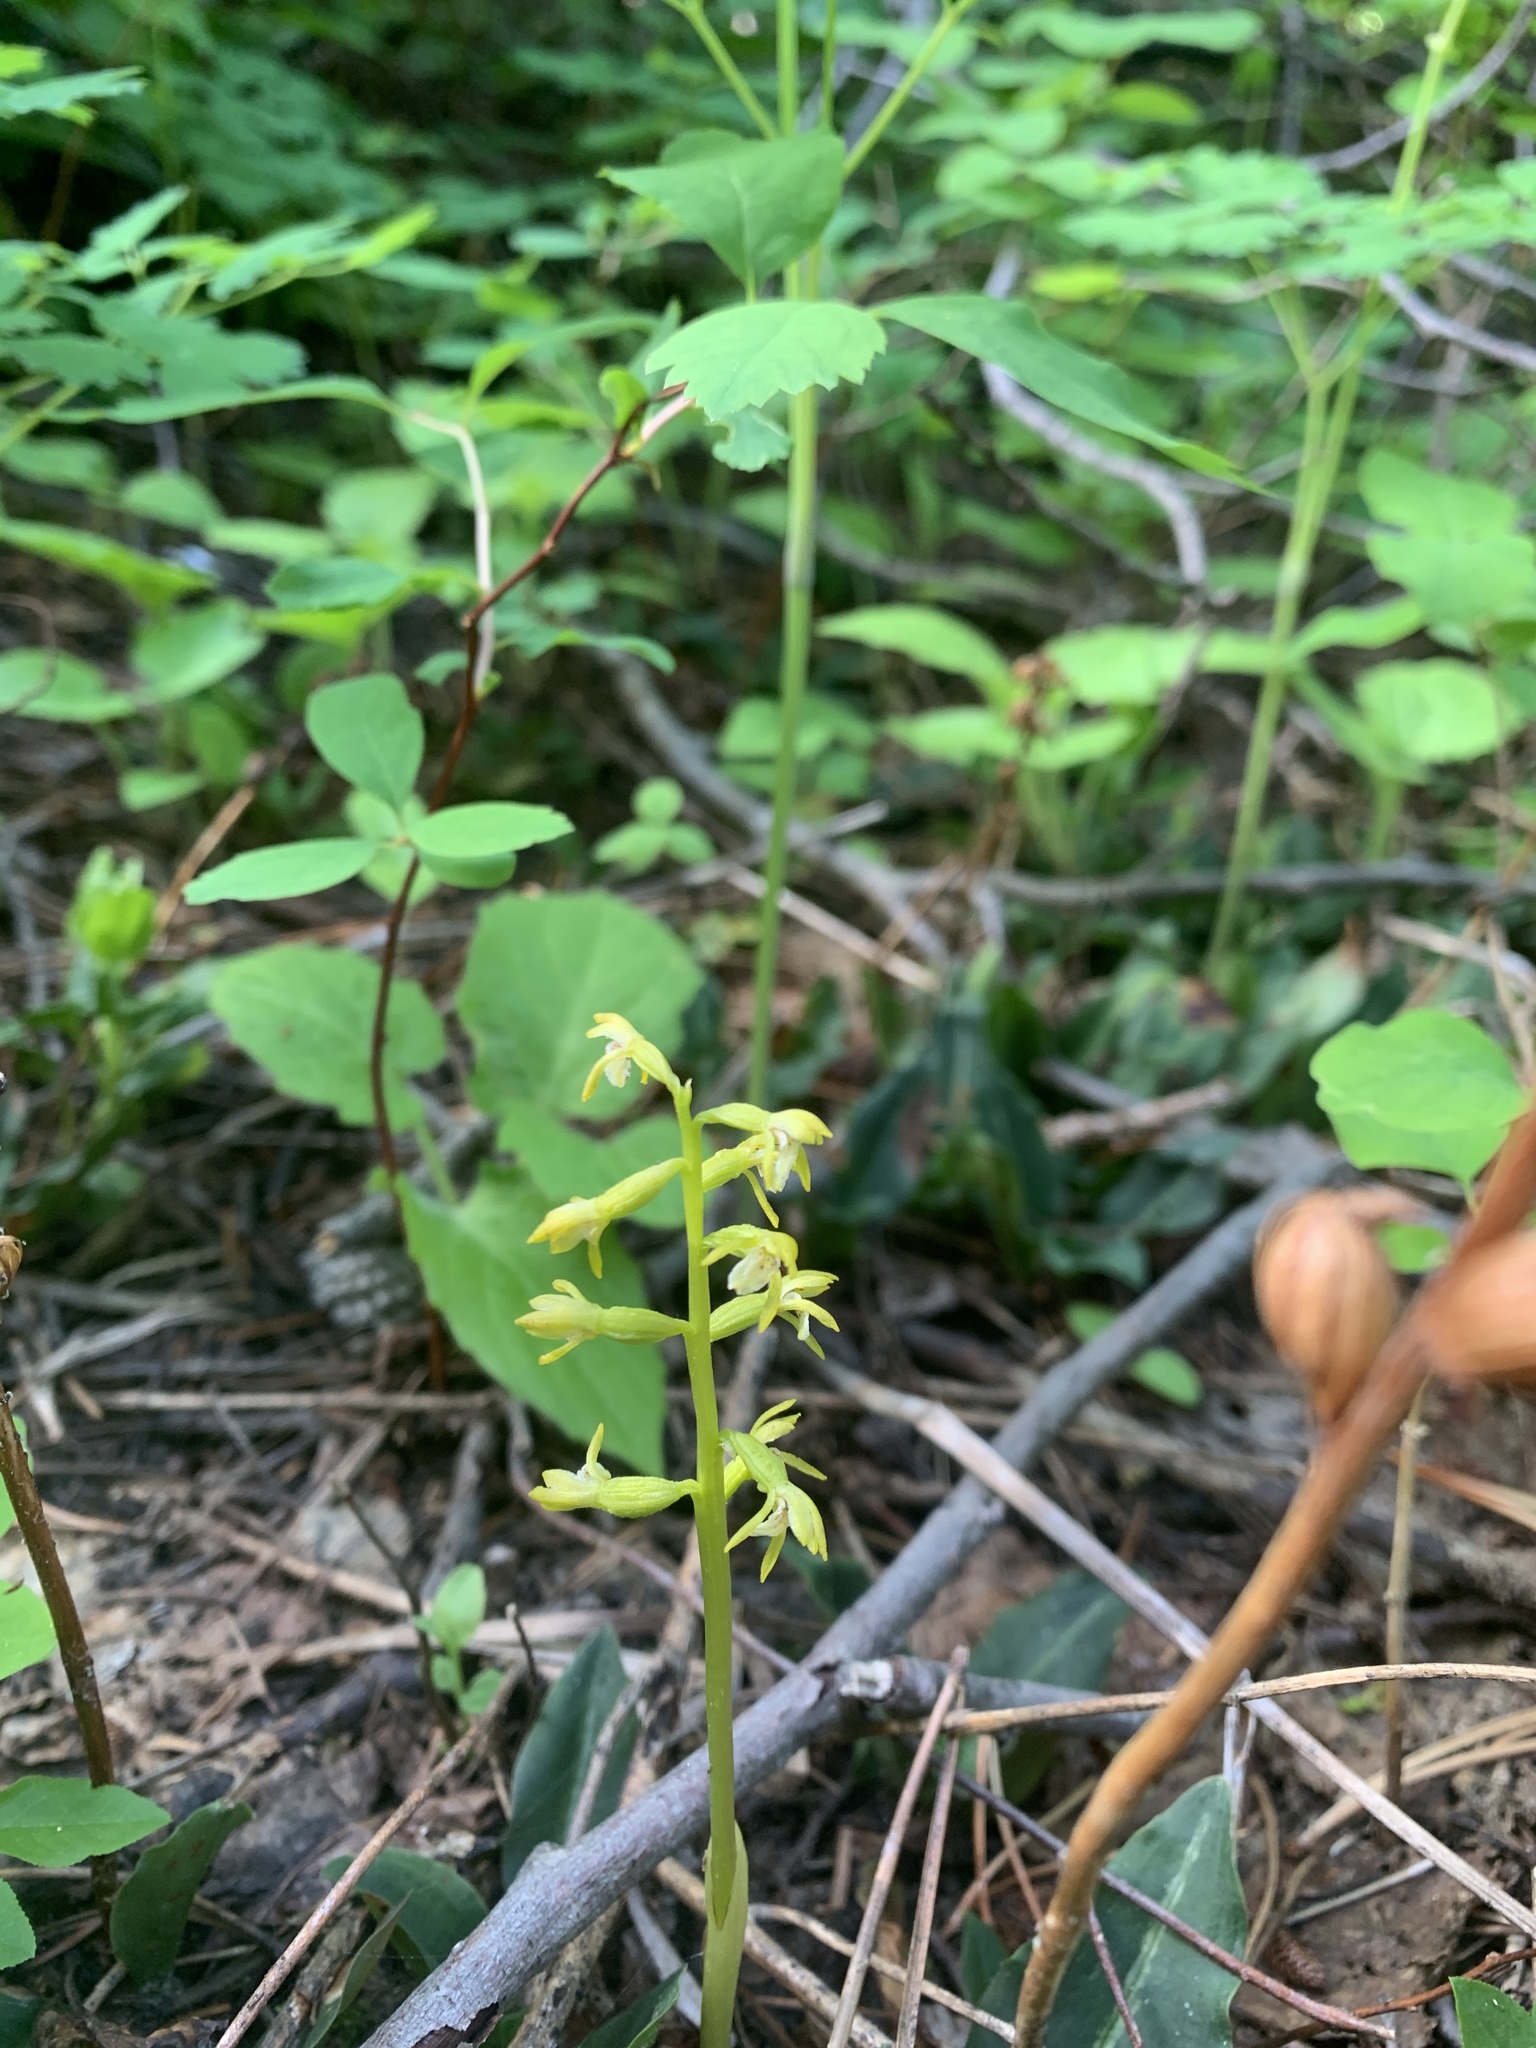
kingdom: Plantae
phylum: Tracheophyta
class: Liliopsida
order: Asparagales
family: Orchidaceae
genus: Corallorhiza
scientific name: Corallorhiza trifida
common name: Yellow coralroot
